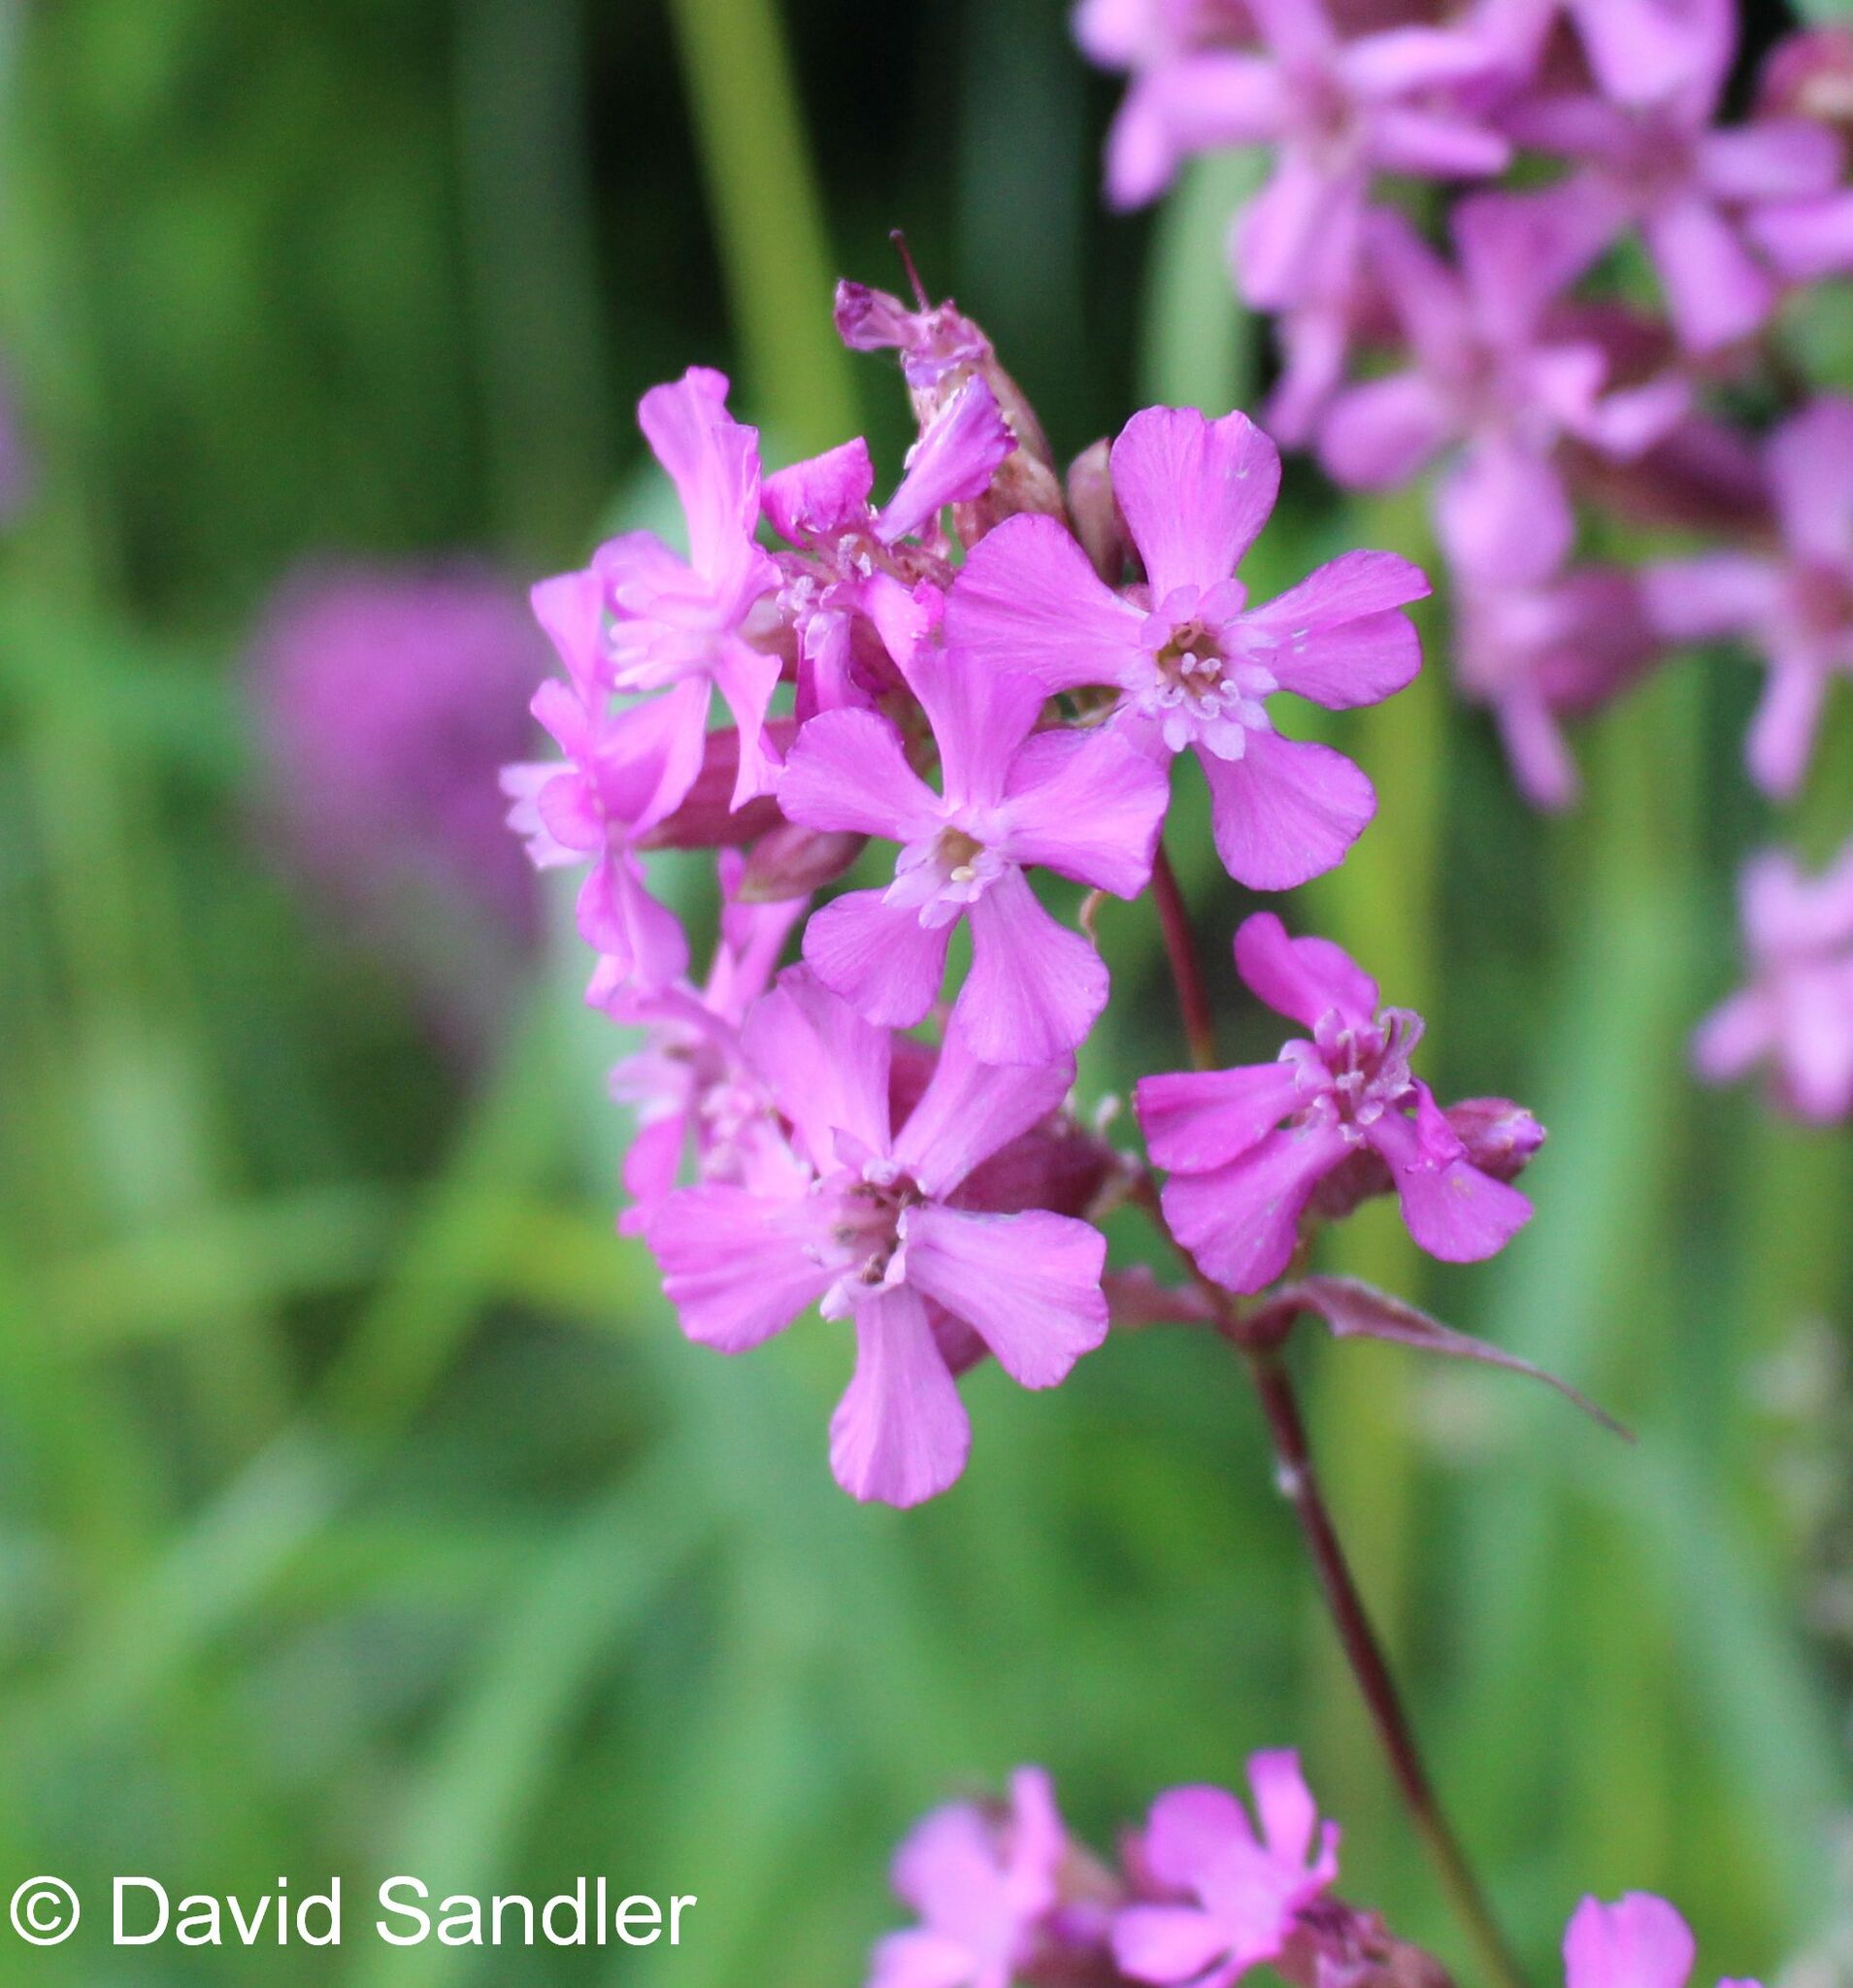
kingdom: Plantae
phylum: Tracheophyta
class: Magnoliopsida
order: Caryophyllales
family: Caryophyllaceae
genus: Viscaria
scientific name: Viscaria vulgaris
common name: Clammy campion
